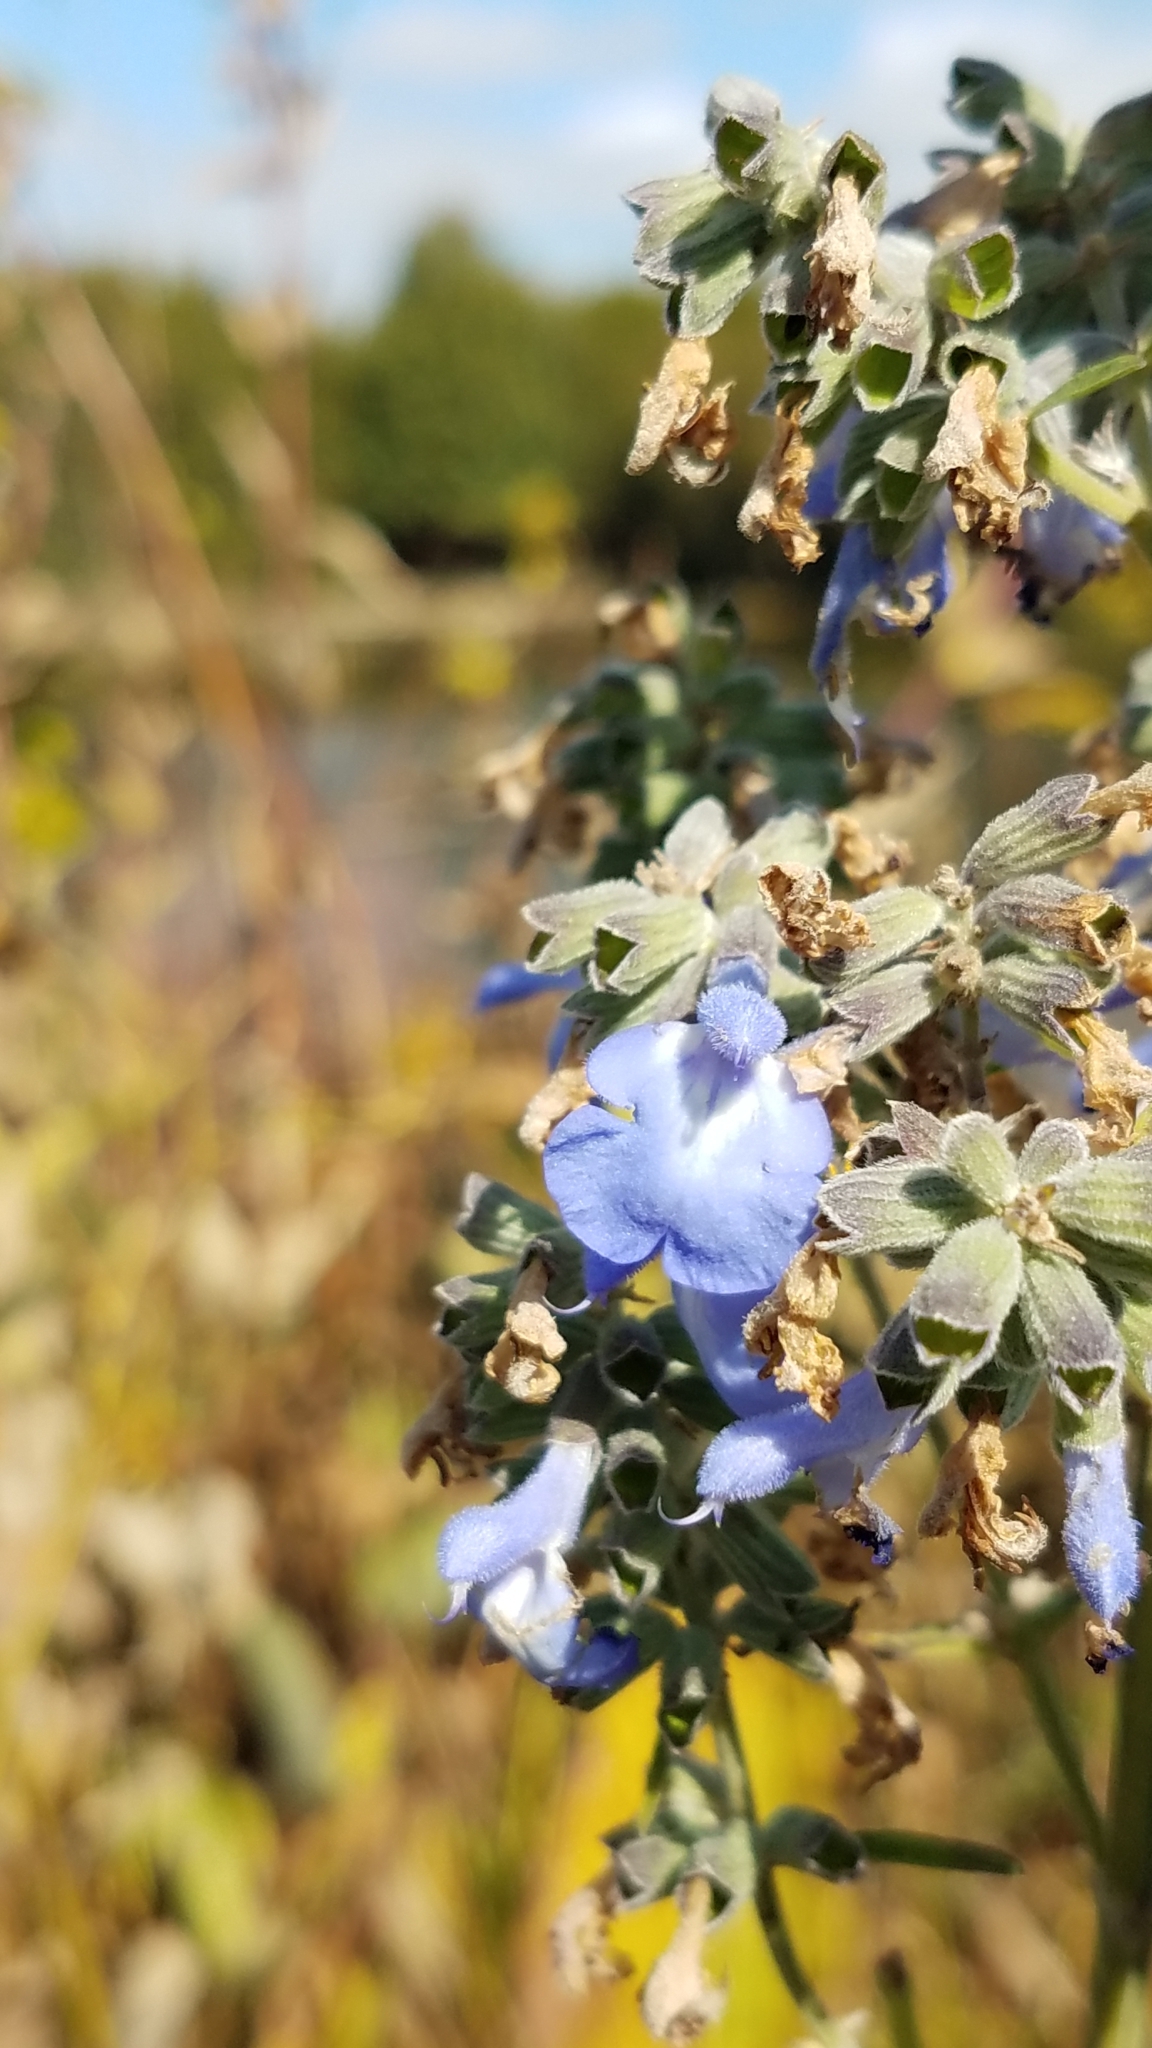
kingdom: Plantae
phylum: Tracheophyta
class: Magnoliopsida
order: Lamiales
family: Lamiaceae
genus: Salvia
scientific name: Salvia azurea
